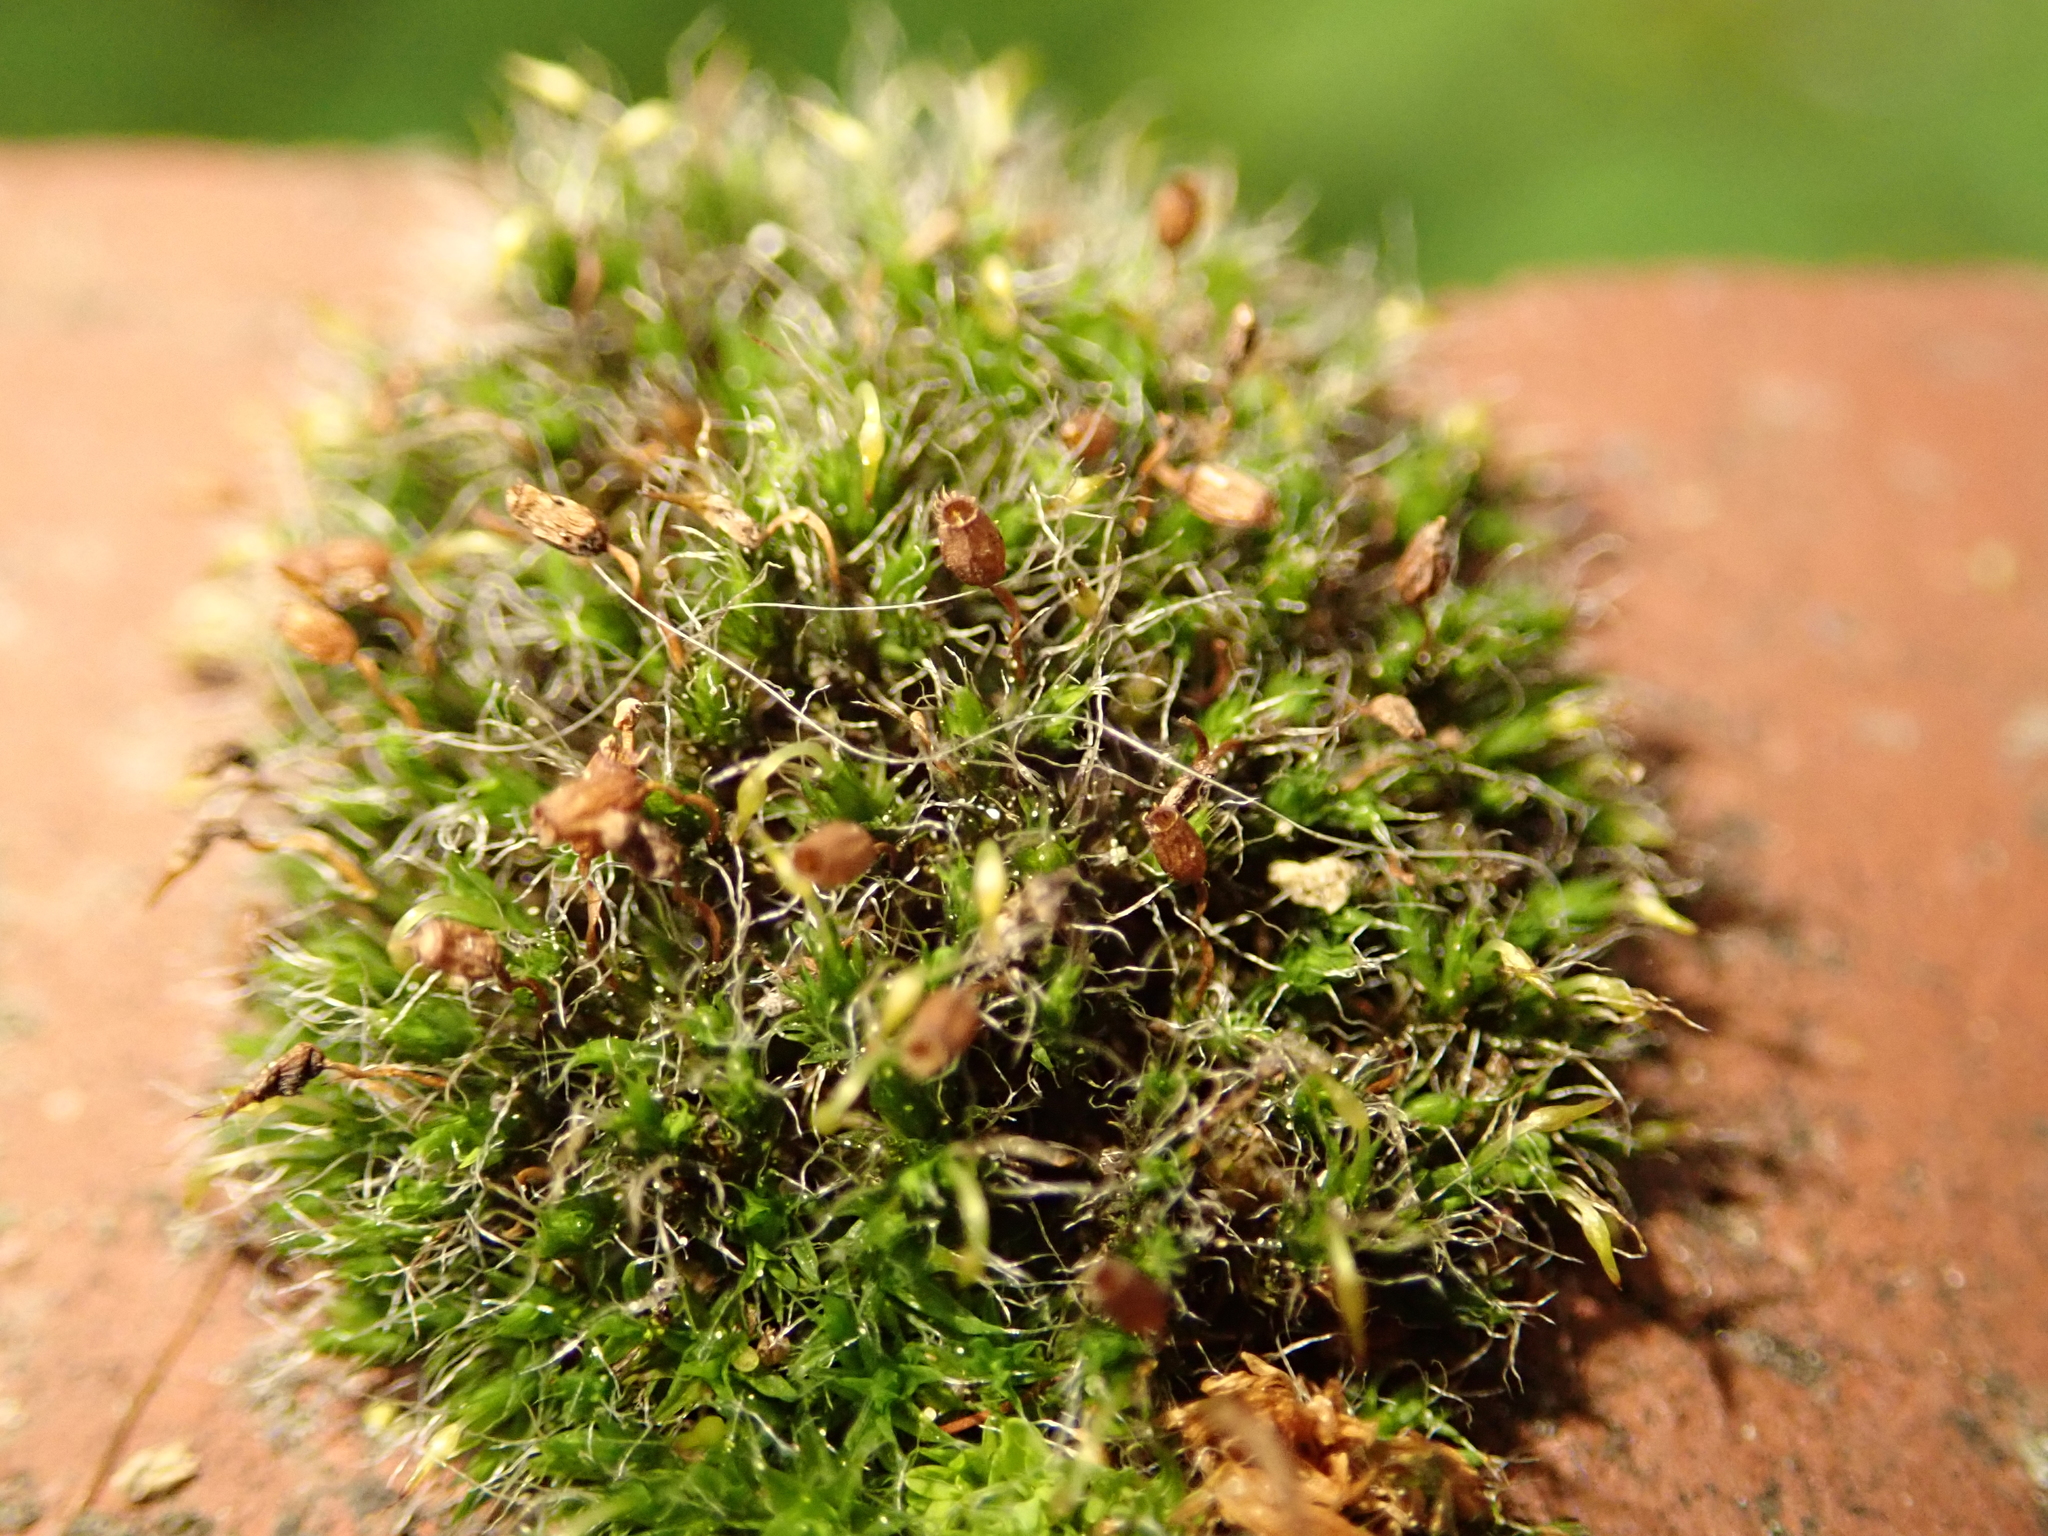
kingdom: Plantae
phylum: Bryophyta
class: Bryopsida
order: Grimmiales
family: Grimmiaceae
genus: Grimmia
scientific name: Grimmia pulvinata
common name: Grey-cushioned grimmia
